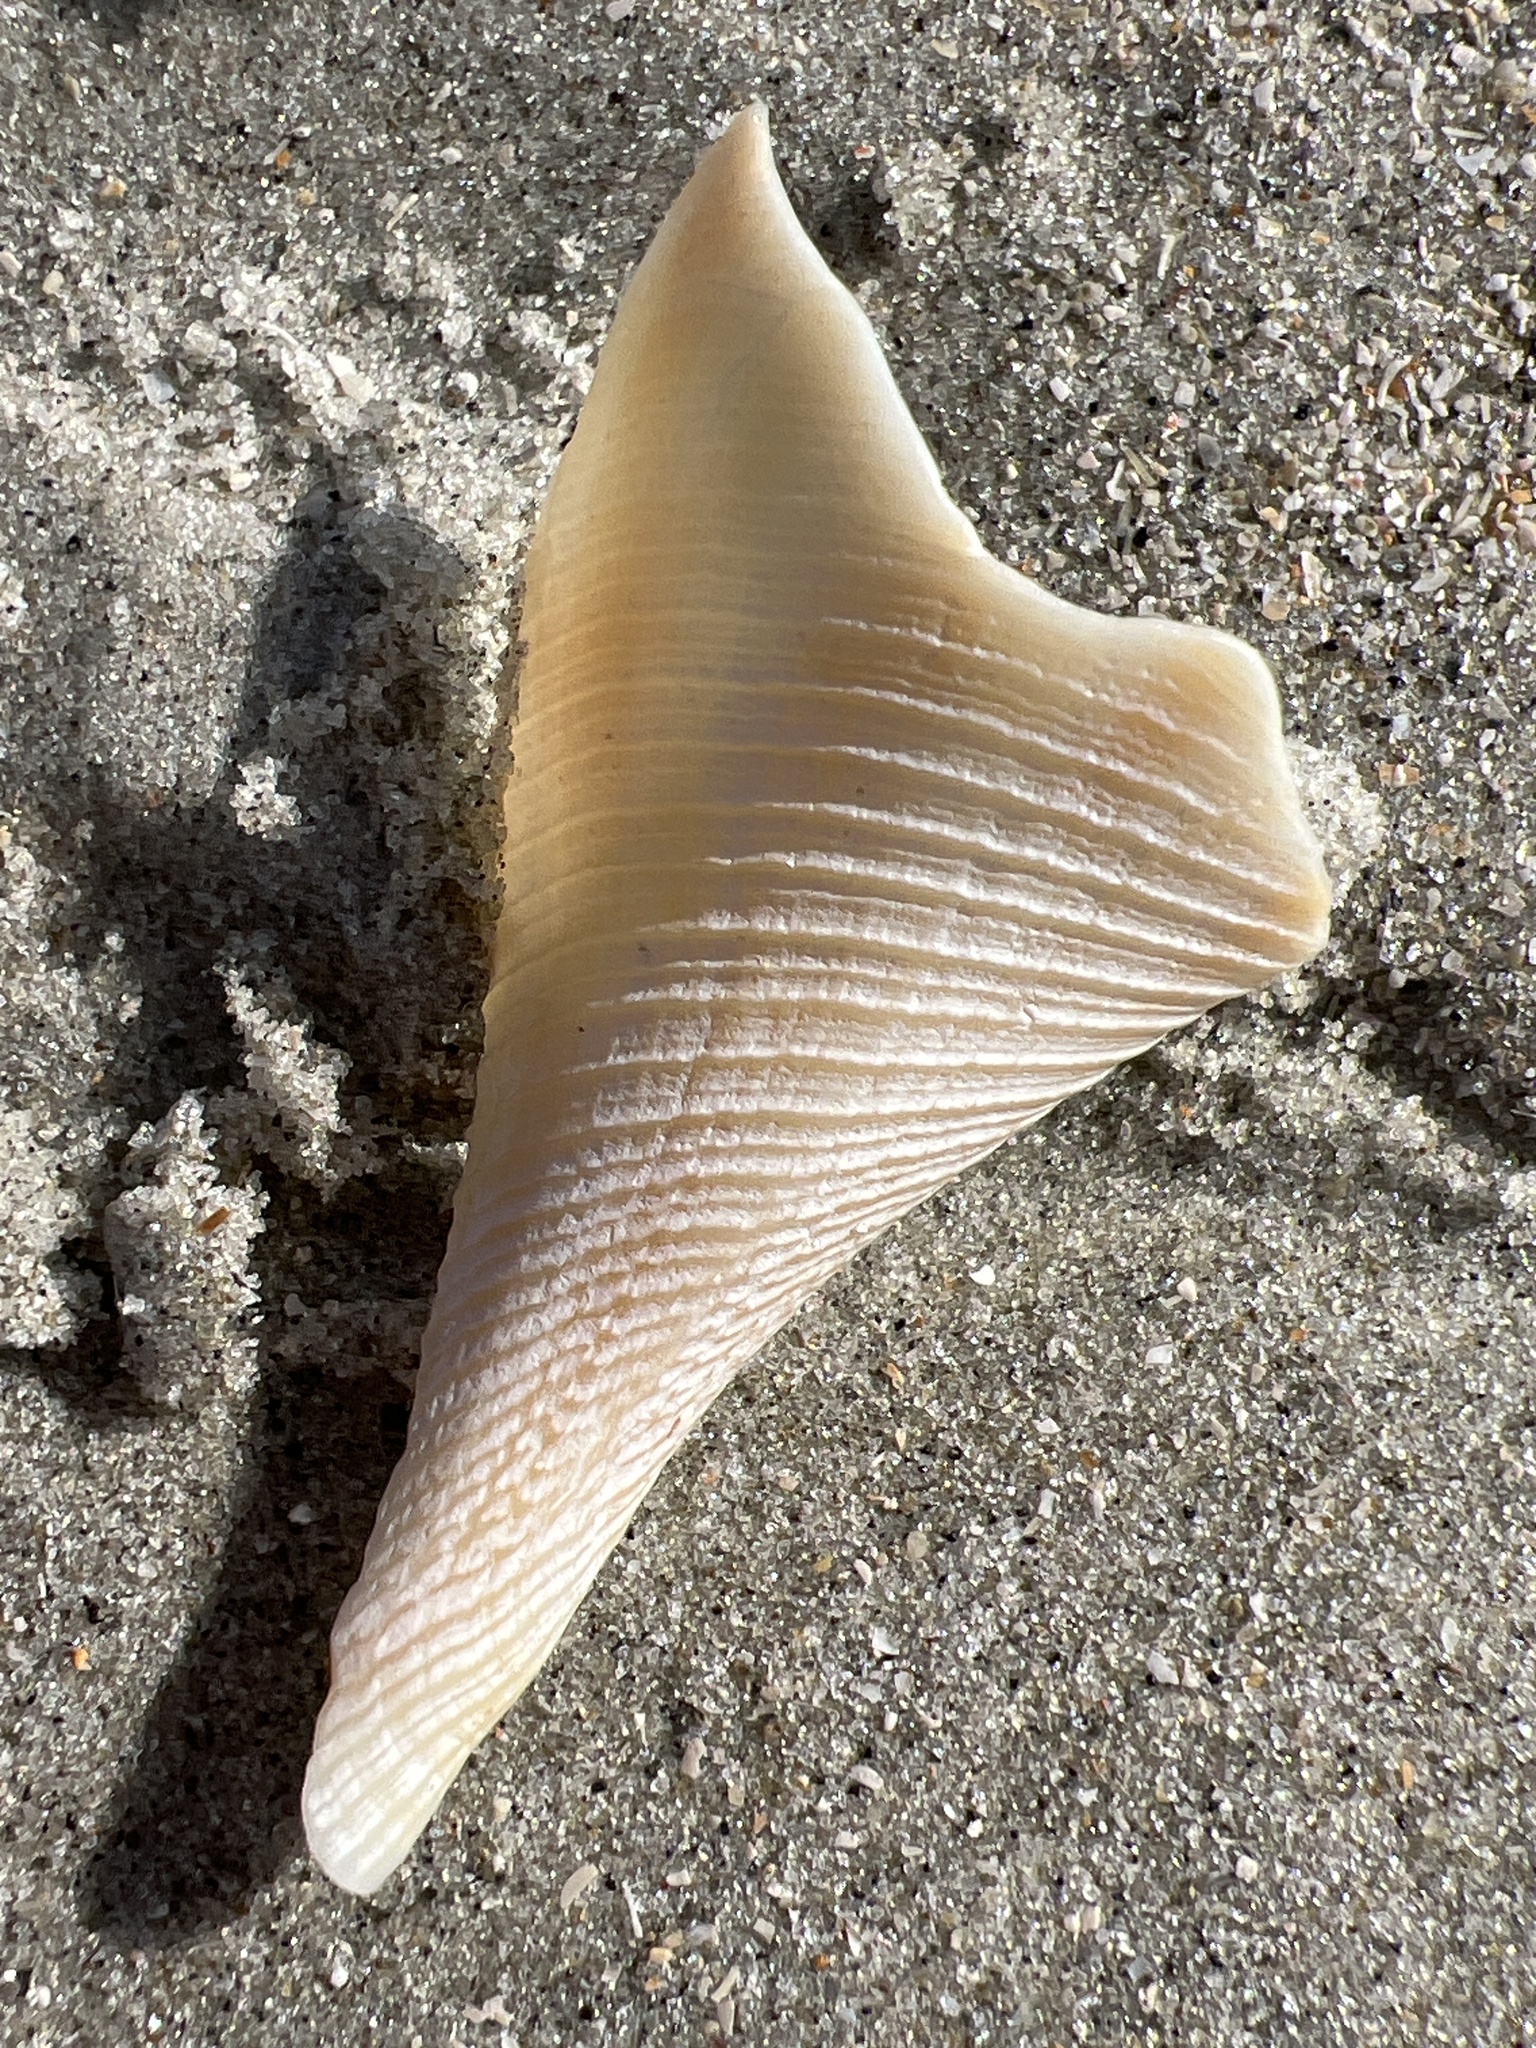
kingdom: Animalia
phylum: Mollusca
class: Gastropoda
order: Neogastropoda
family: Busyconidae
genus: Fulguropsis
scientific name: Fulguropsis pyruloides
